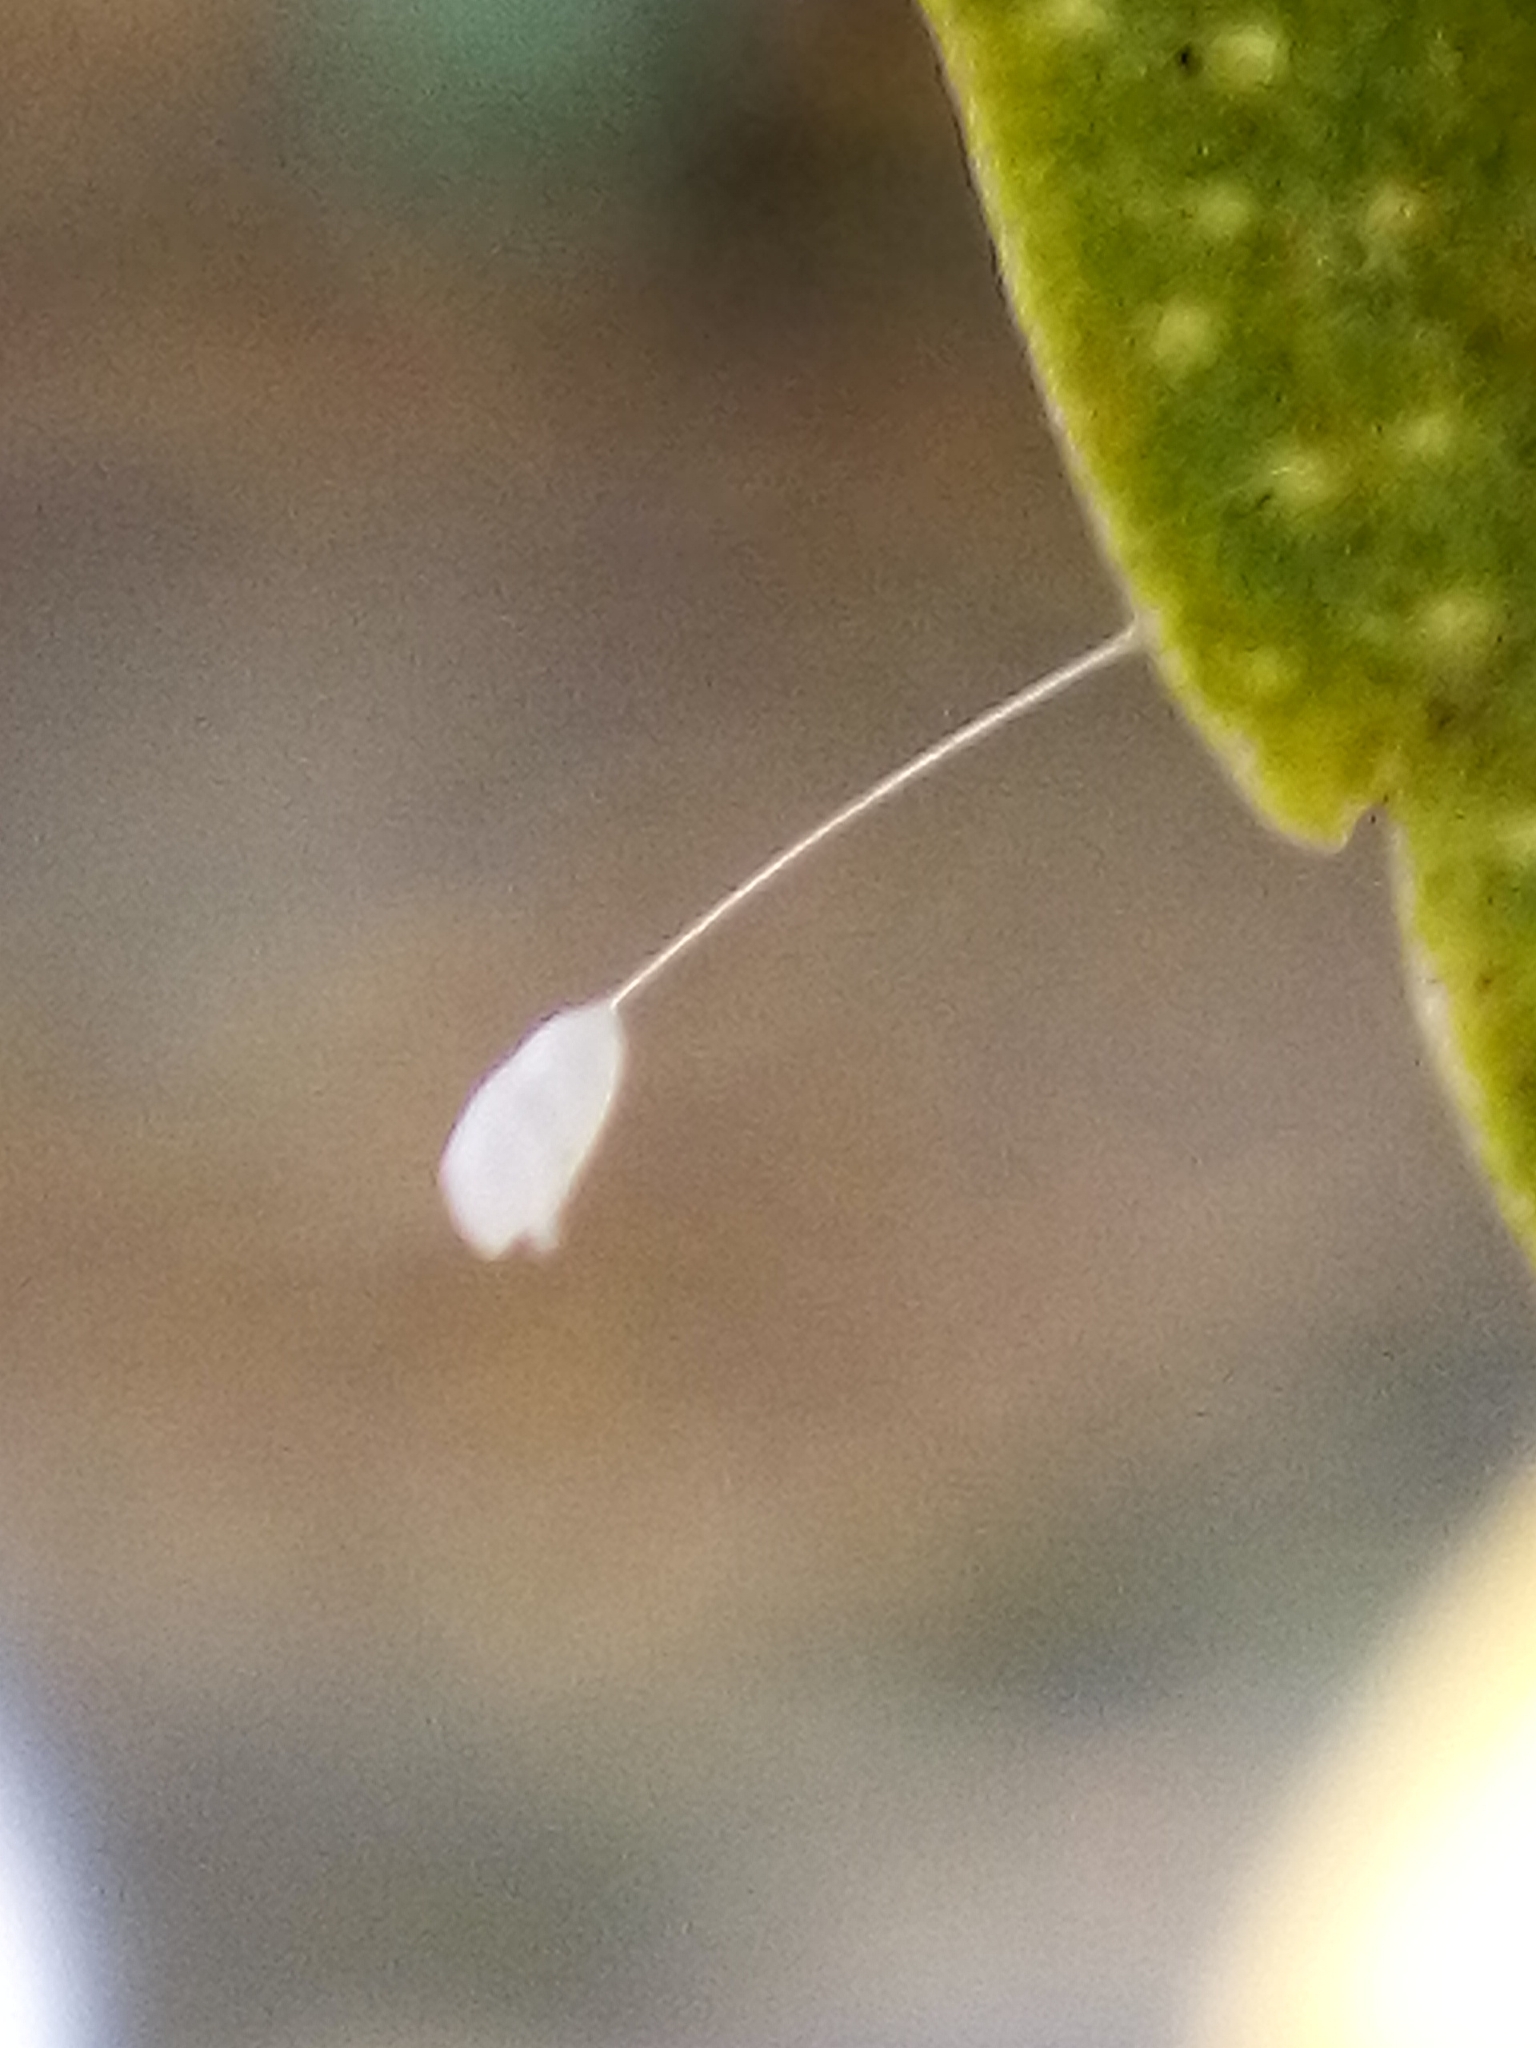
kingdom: Animalia
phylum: Arthropoda
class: Insecta
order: Neuroptera
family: Chrysopidae
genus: Mallada
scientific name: Mallada basalis
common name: Green lacewing
